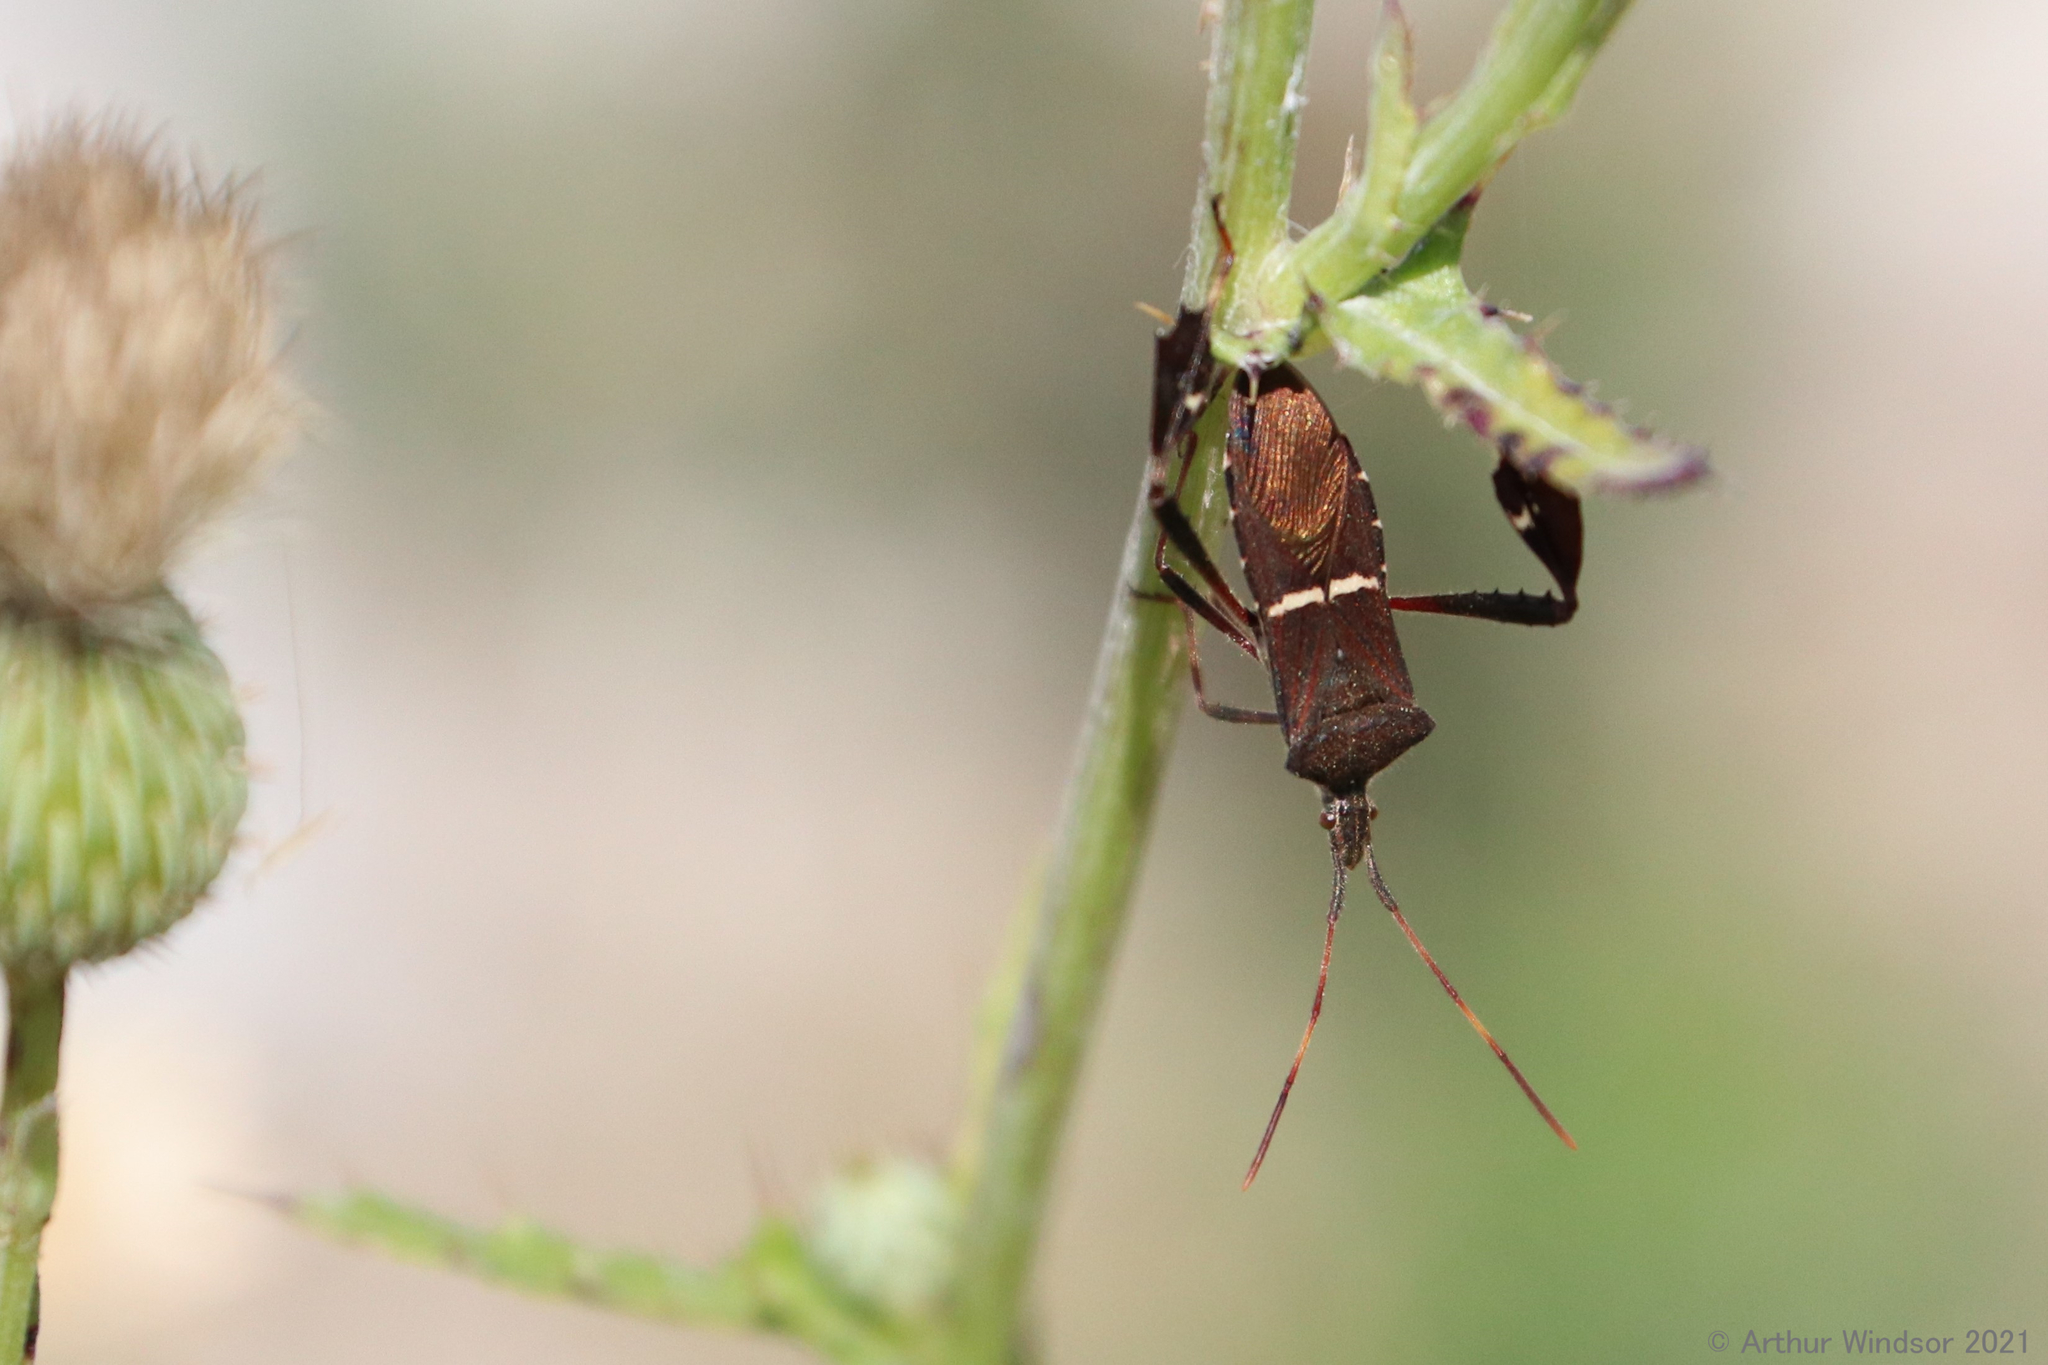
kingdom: Animalia
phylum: Arthropoda
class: Insecta
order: Hemiptera
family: Coreidae
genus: Leptoglossus
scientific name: Leptoglossus phyllopus
